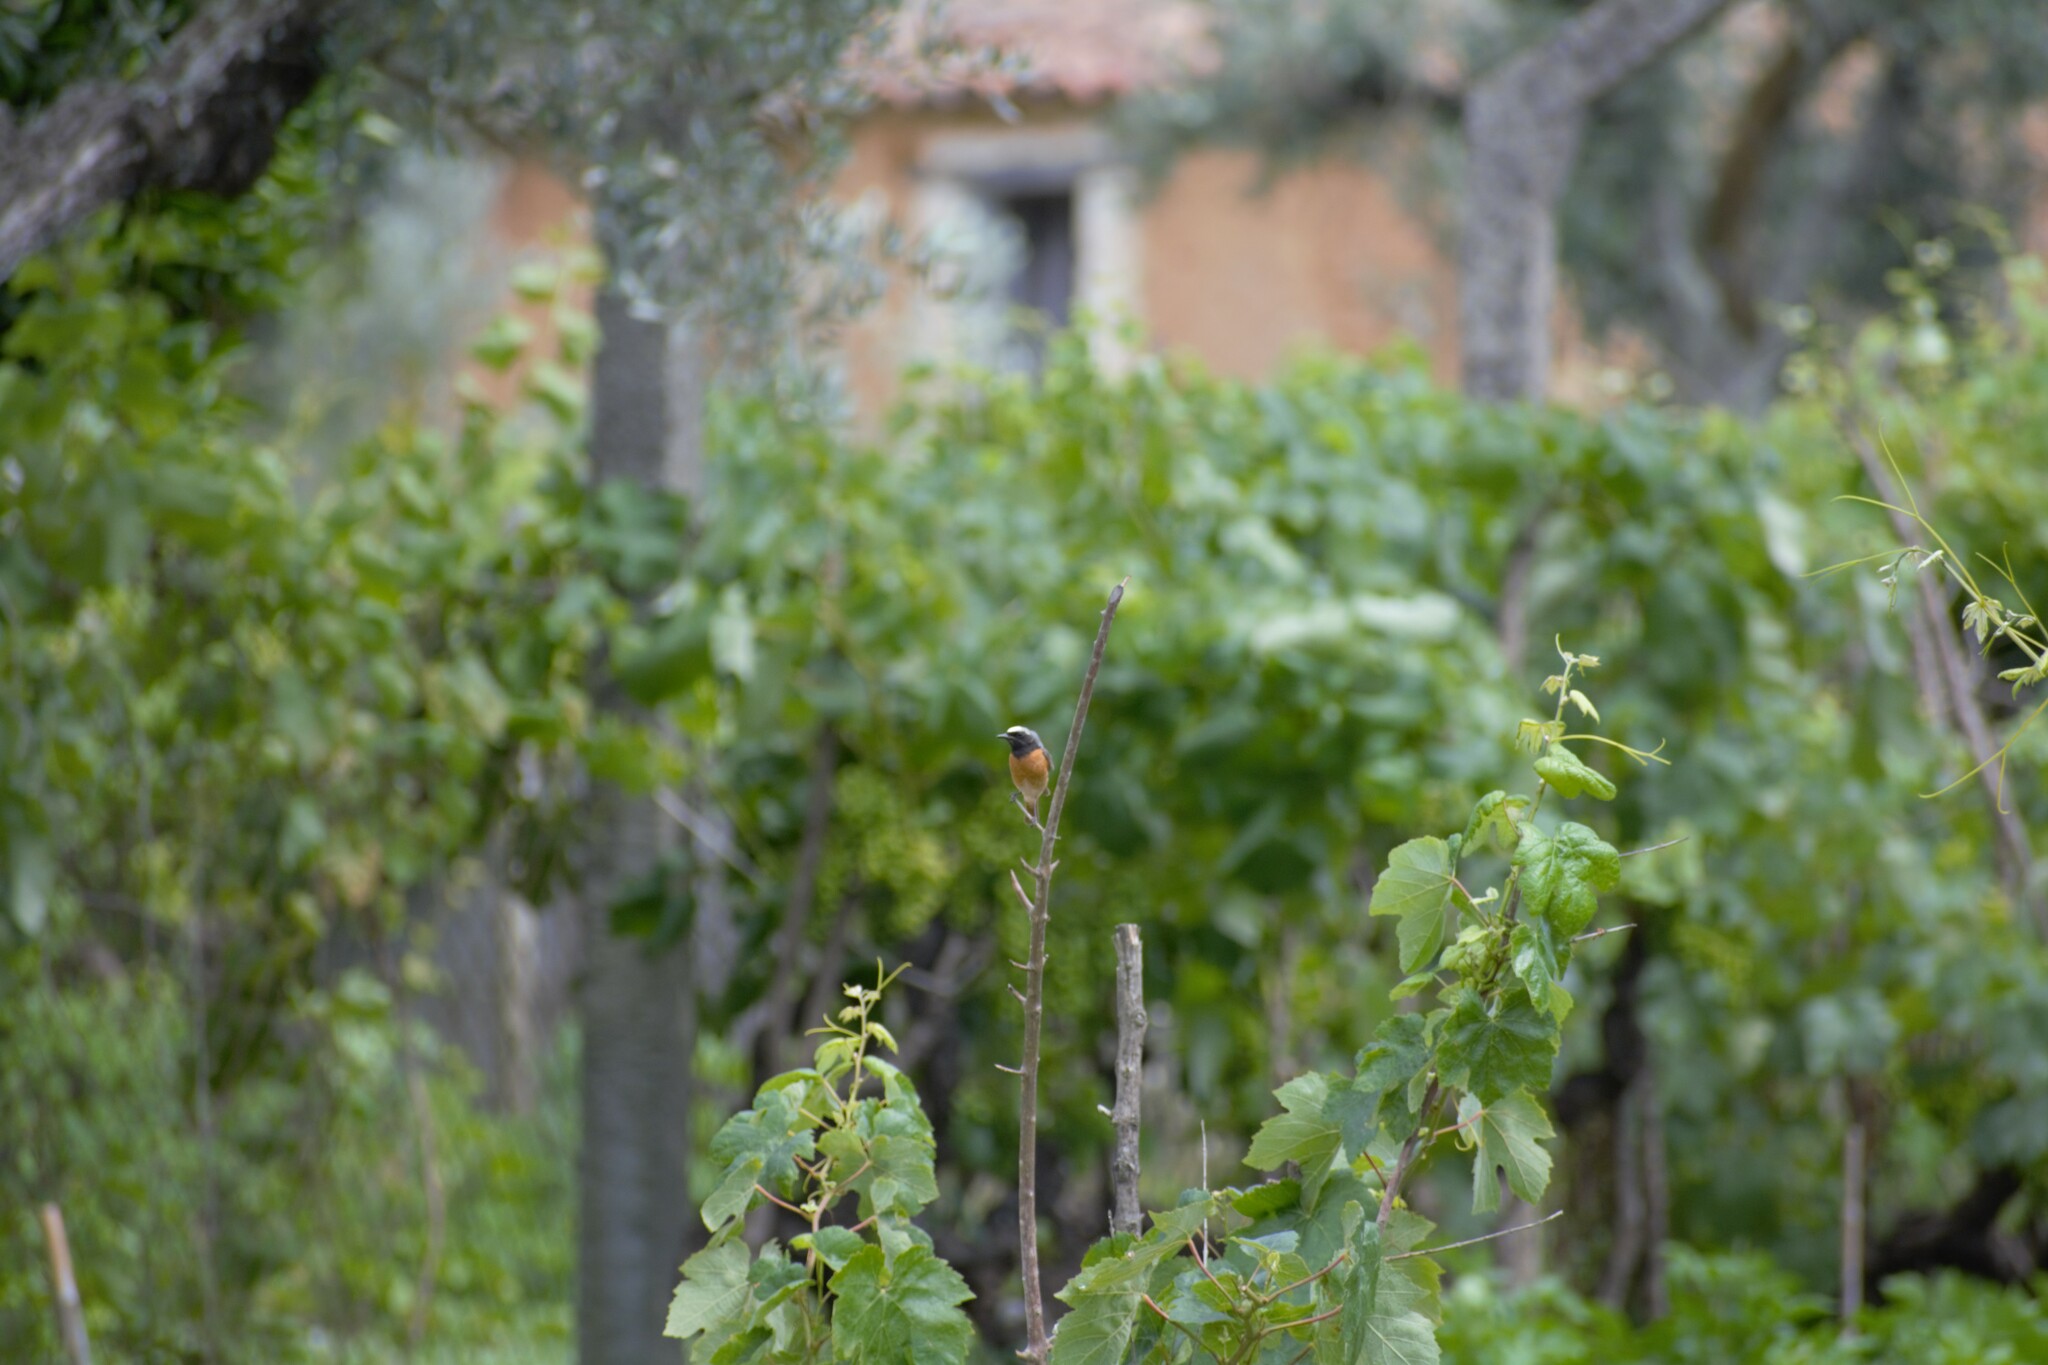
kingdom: Animalia
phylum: Chordata
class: Aves
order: Passeriformes
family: Muscicapidae
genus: Phoenicurus
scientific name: Phoenicurus phoenicurus
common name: Common redstart
